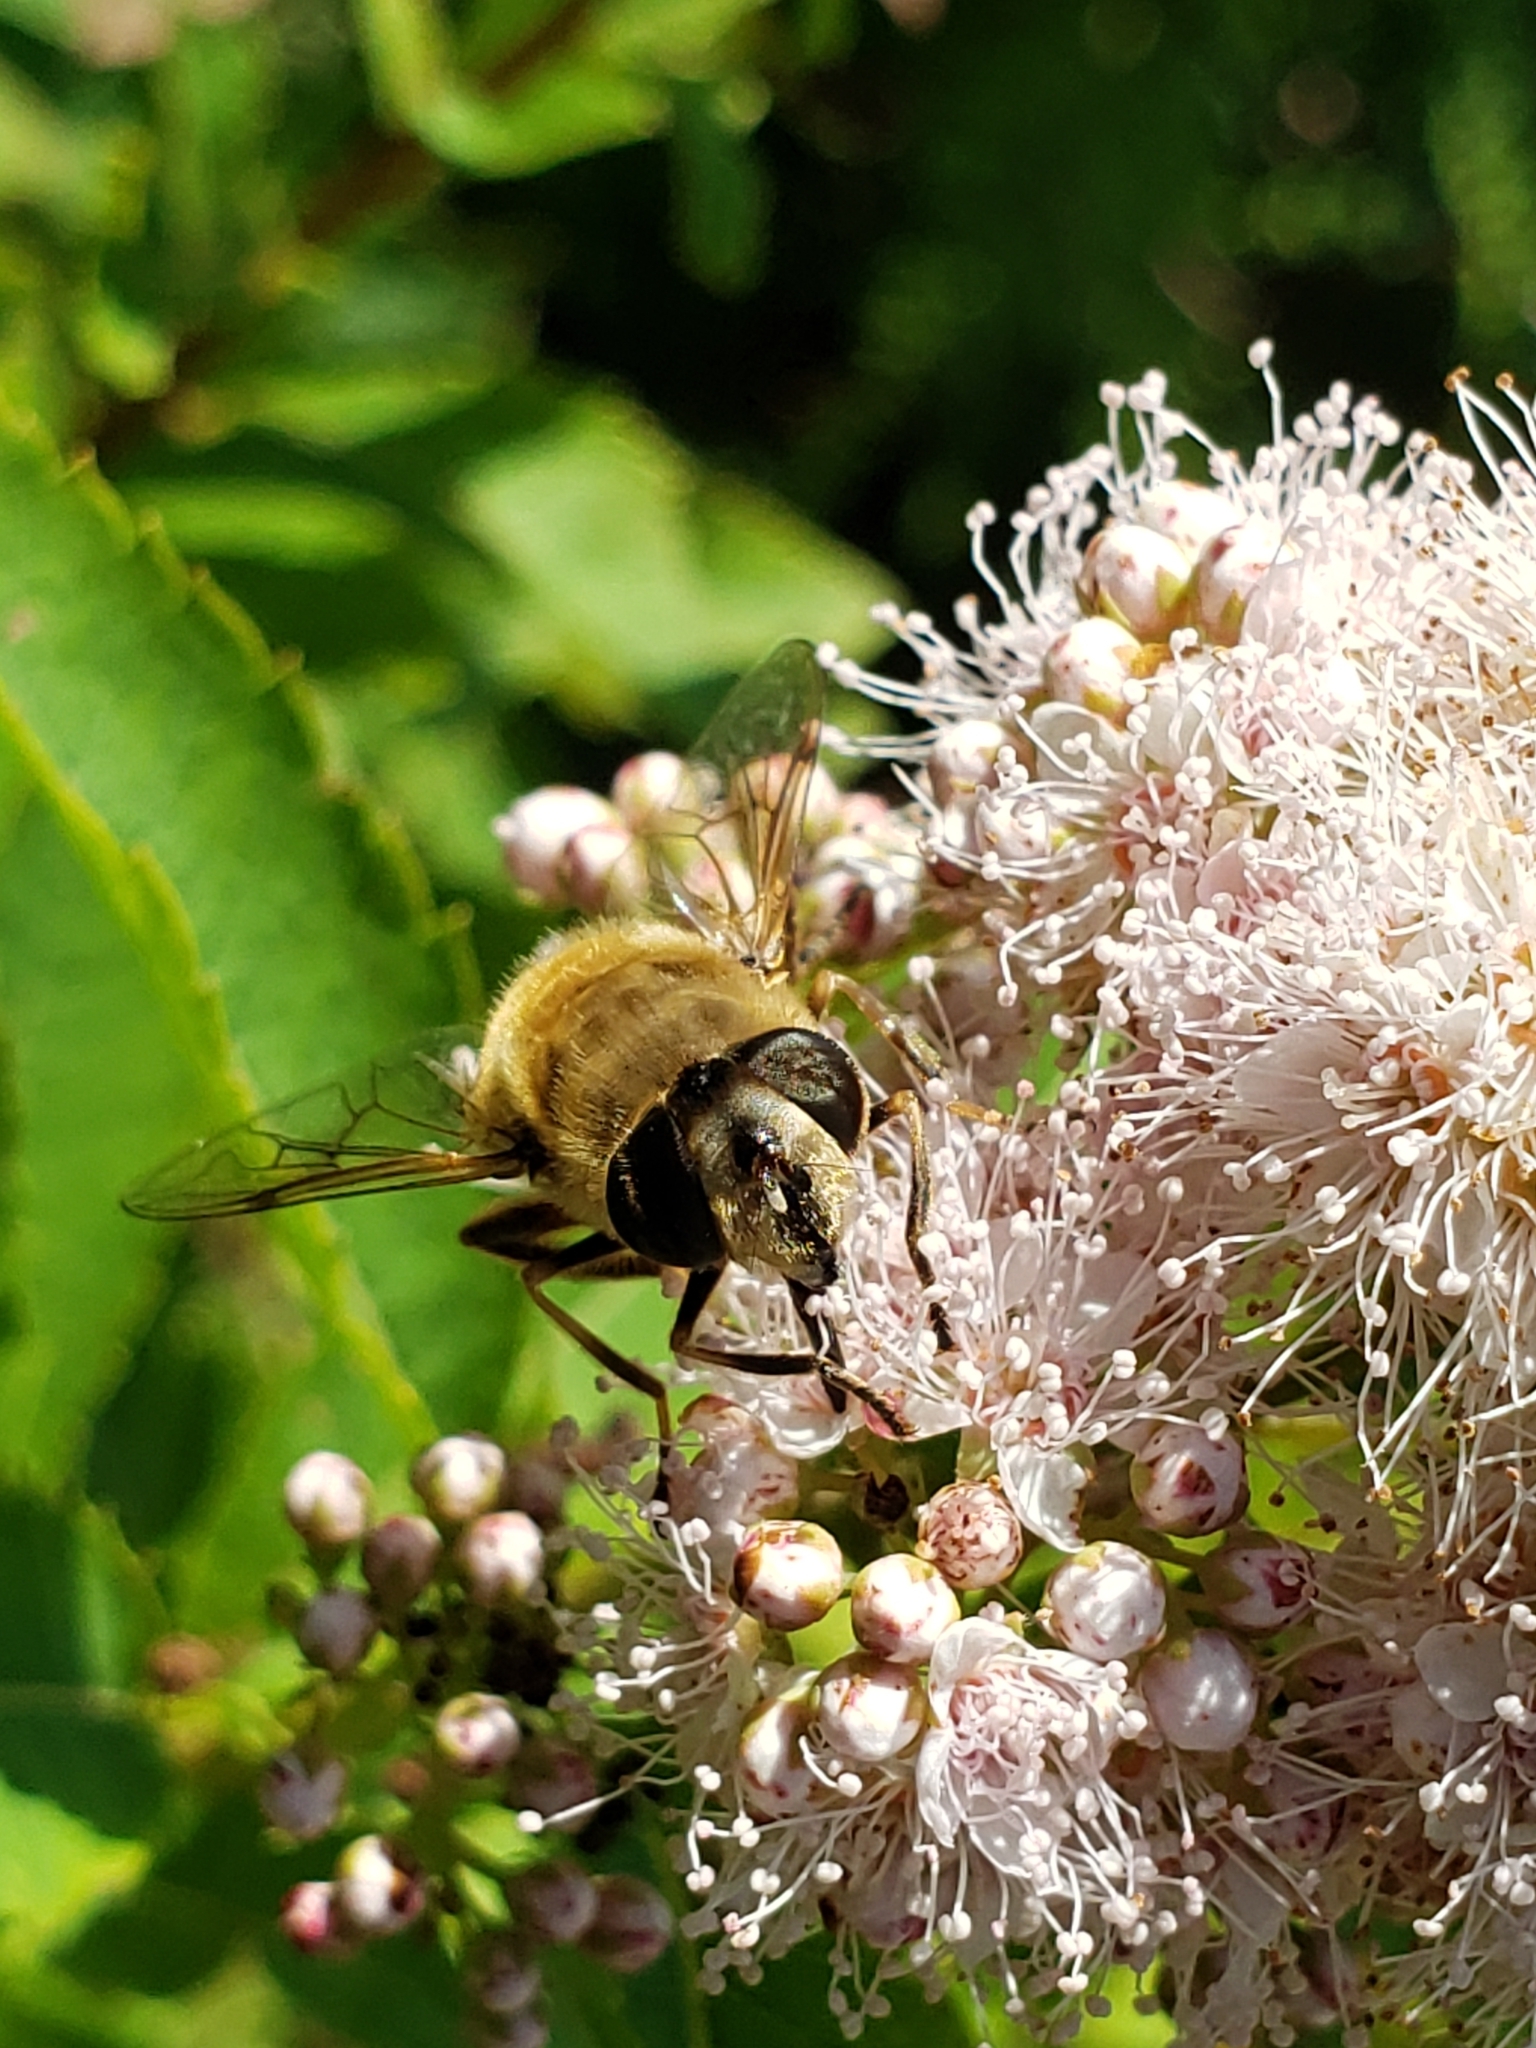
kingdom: Animalia
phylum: Arthropoda
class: Insecta
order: Diptera
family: Syrphidae
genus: Eristalis
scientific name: Eristalis tenax
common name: Drone fly
